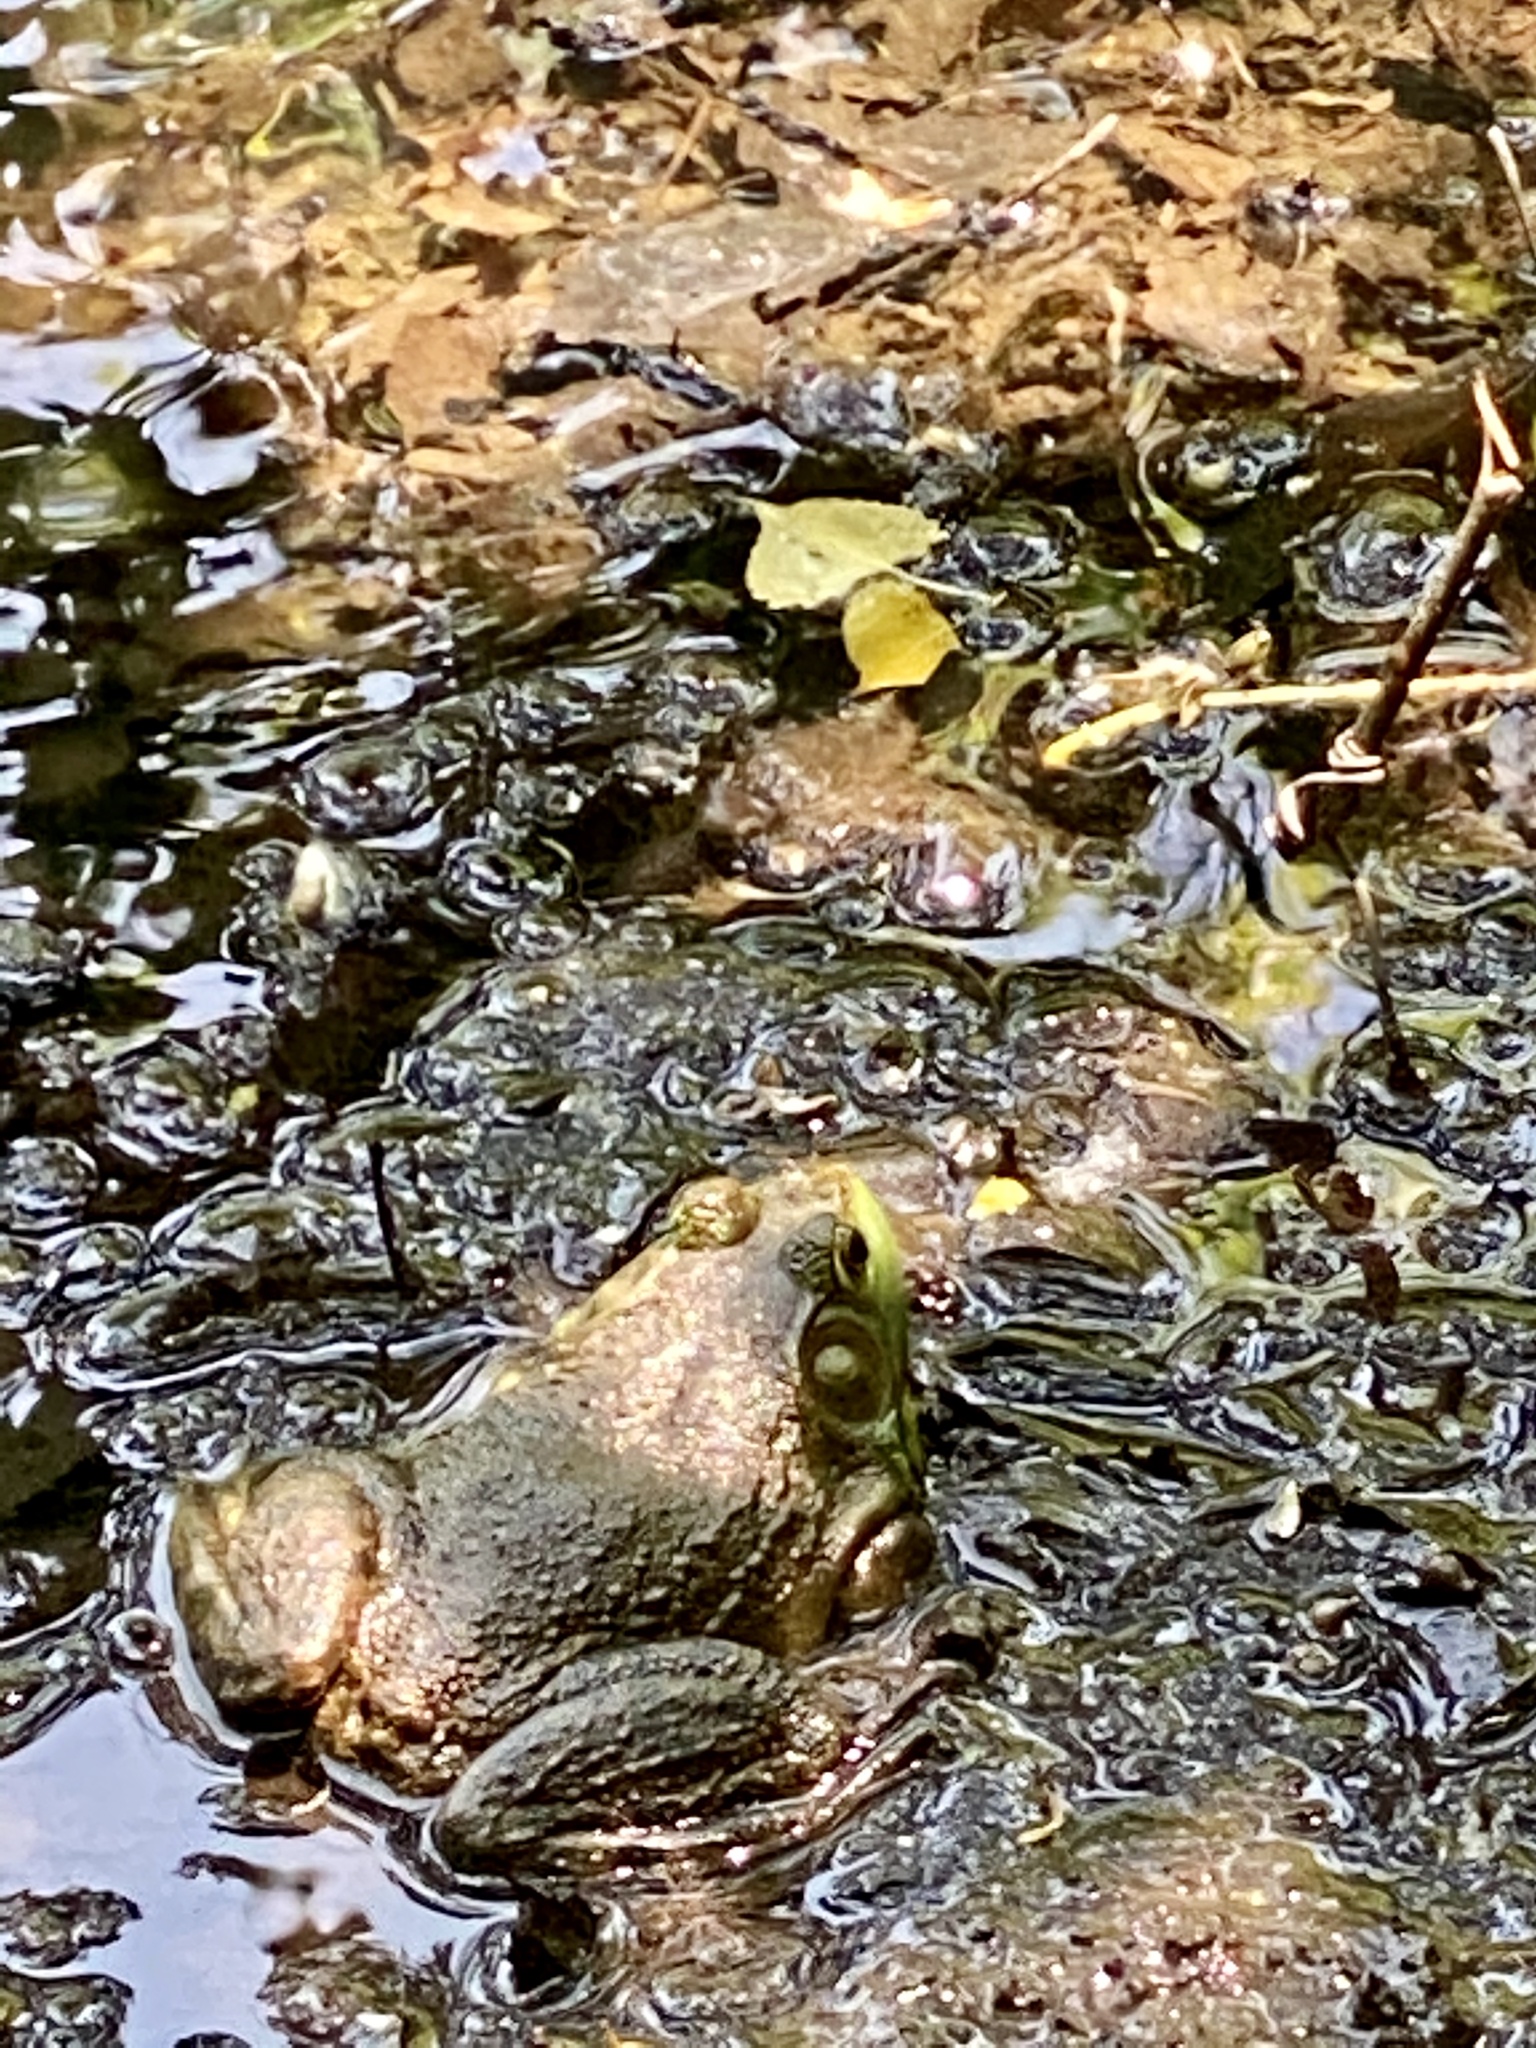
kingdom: Animalia
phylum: Chordata
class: Amphibia
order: Anura
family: Ranidae
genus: Lithobates
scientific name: Lithobates catesbeianus
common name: American bullfrog
